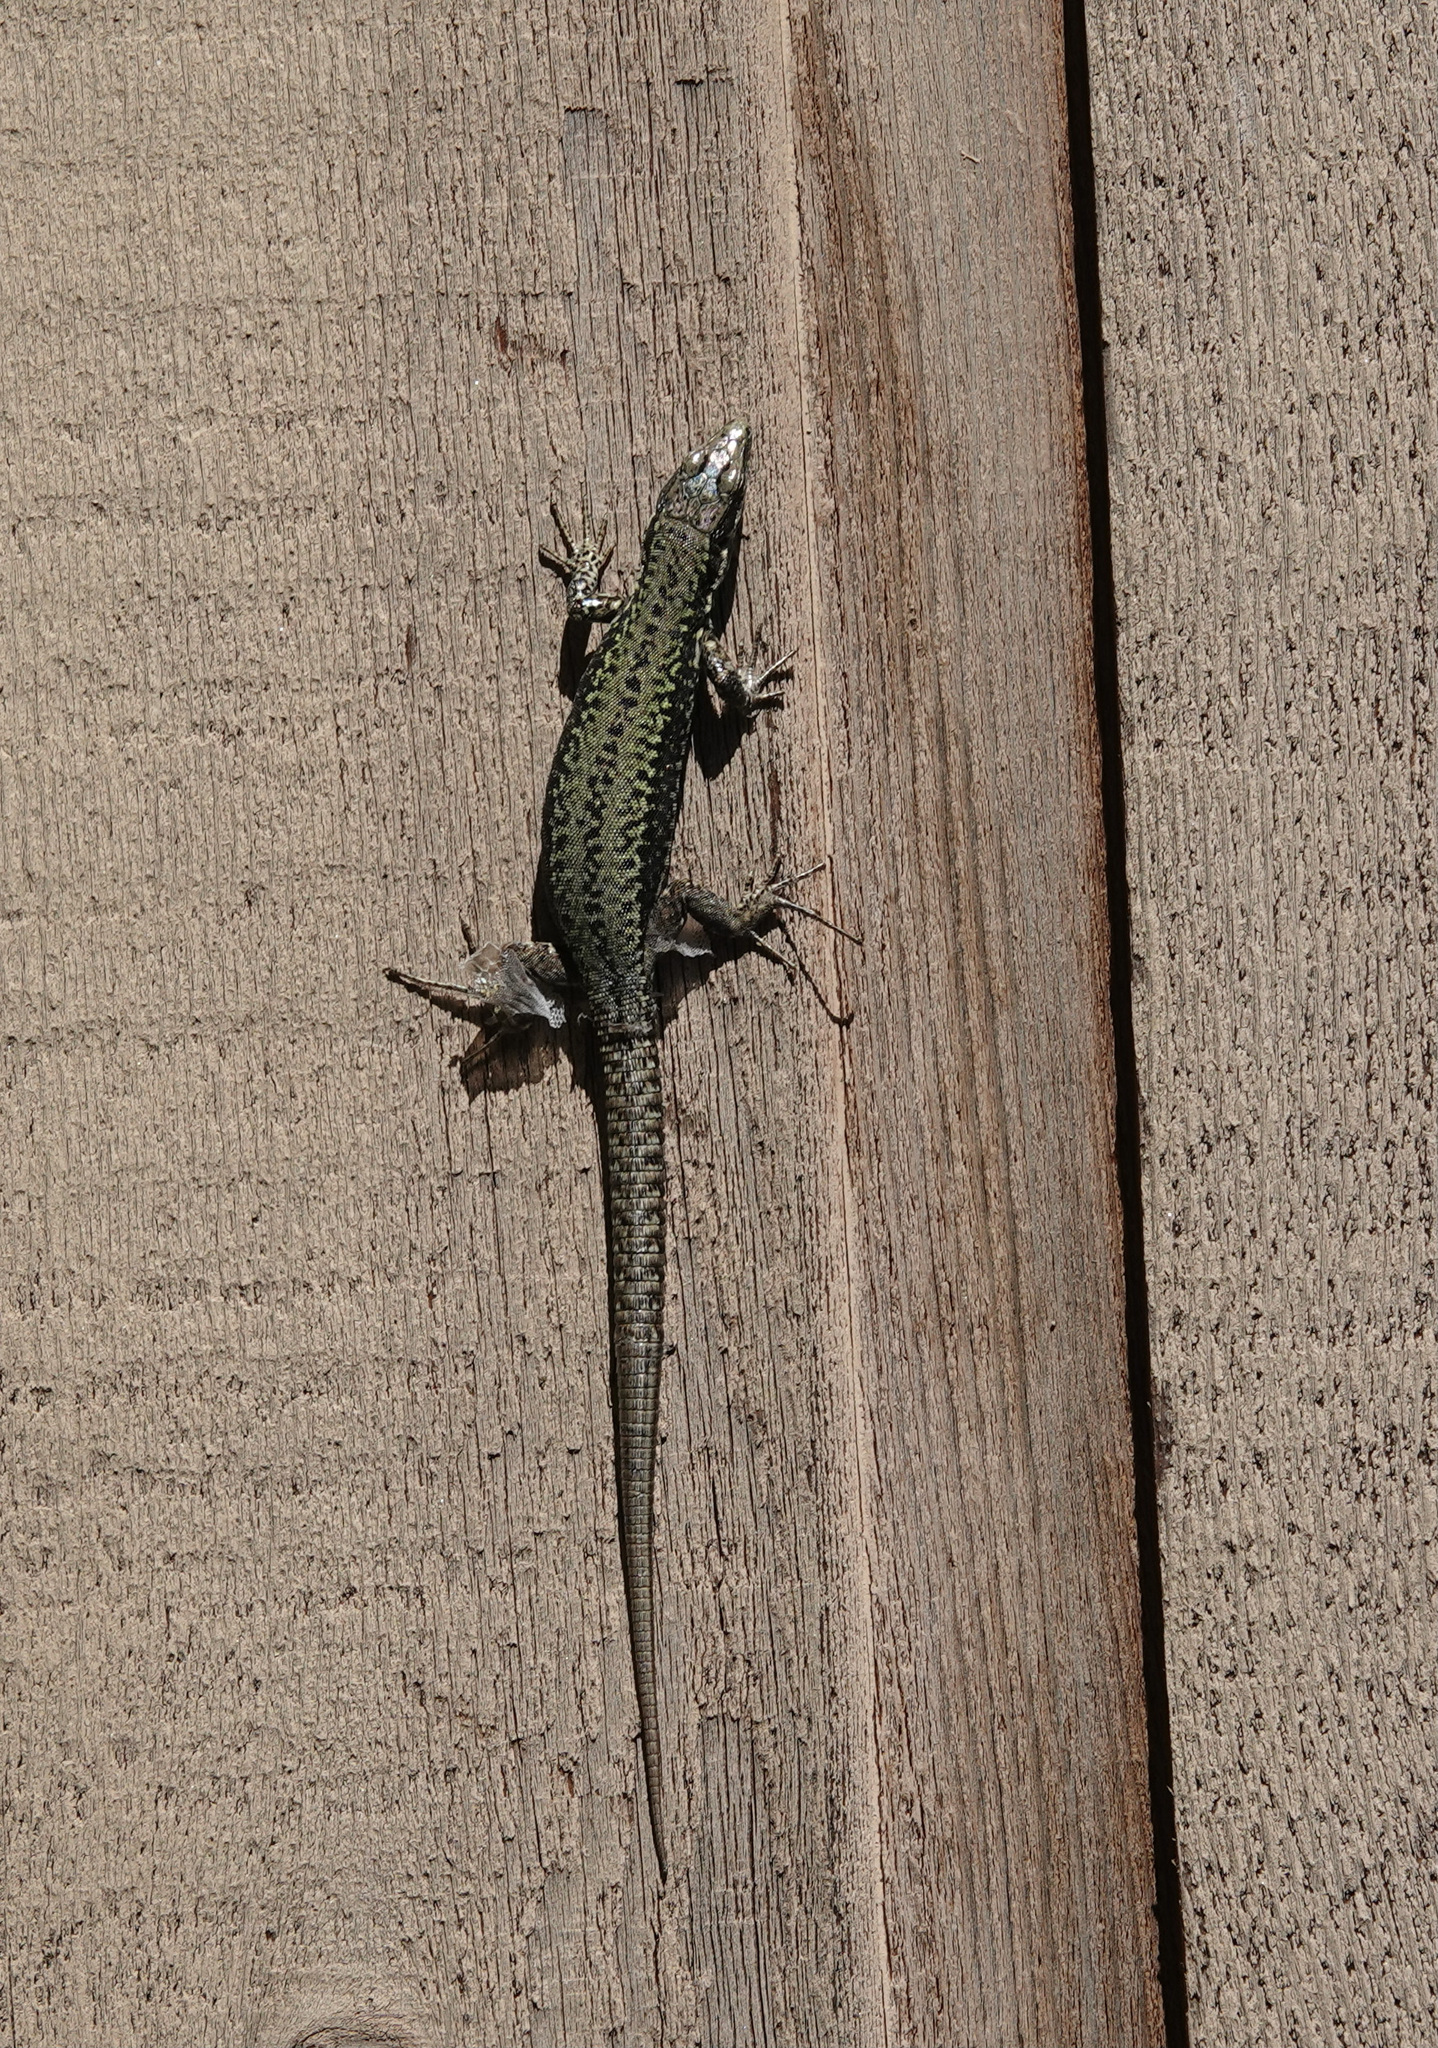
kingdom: Animalia
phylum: Chordata
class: Squamata
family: Lacertidae
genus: Podarcis
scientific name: Podarcis muralis
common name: Common wall lizard
